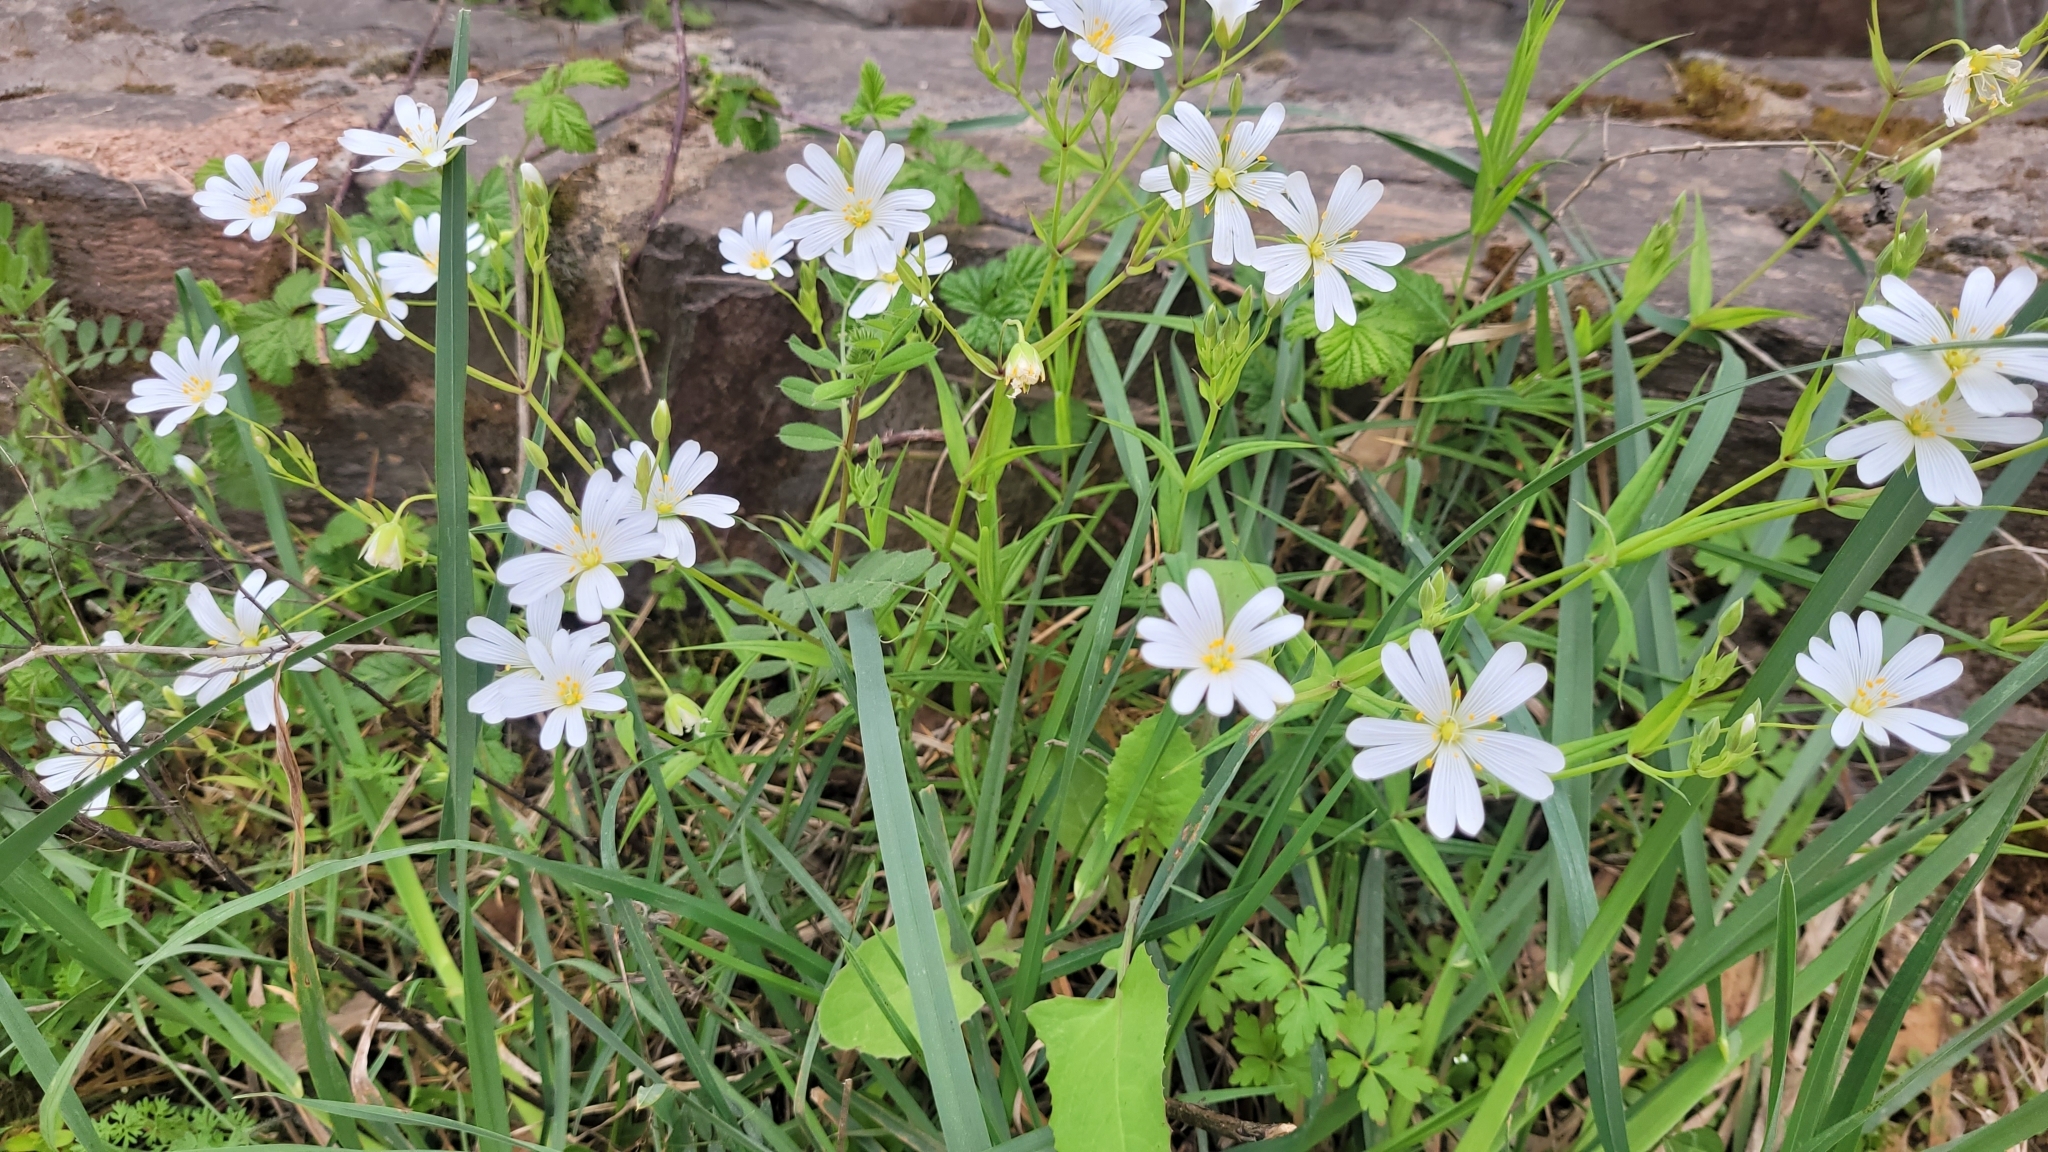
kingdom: Plantae
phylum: Tracheophyta
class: Magnoliopsida
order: Caryophyllales
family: Caryophyllaceae
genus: Rabelera
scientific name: Rabelera holostea
